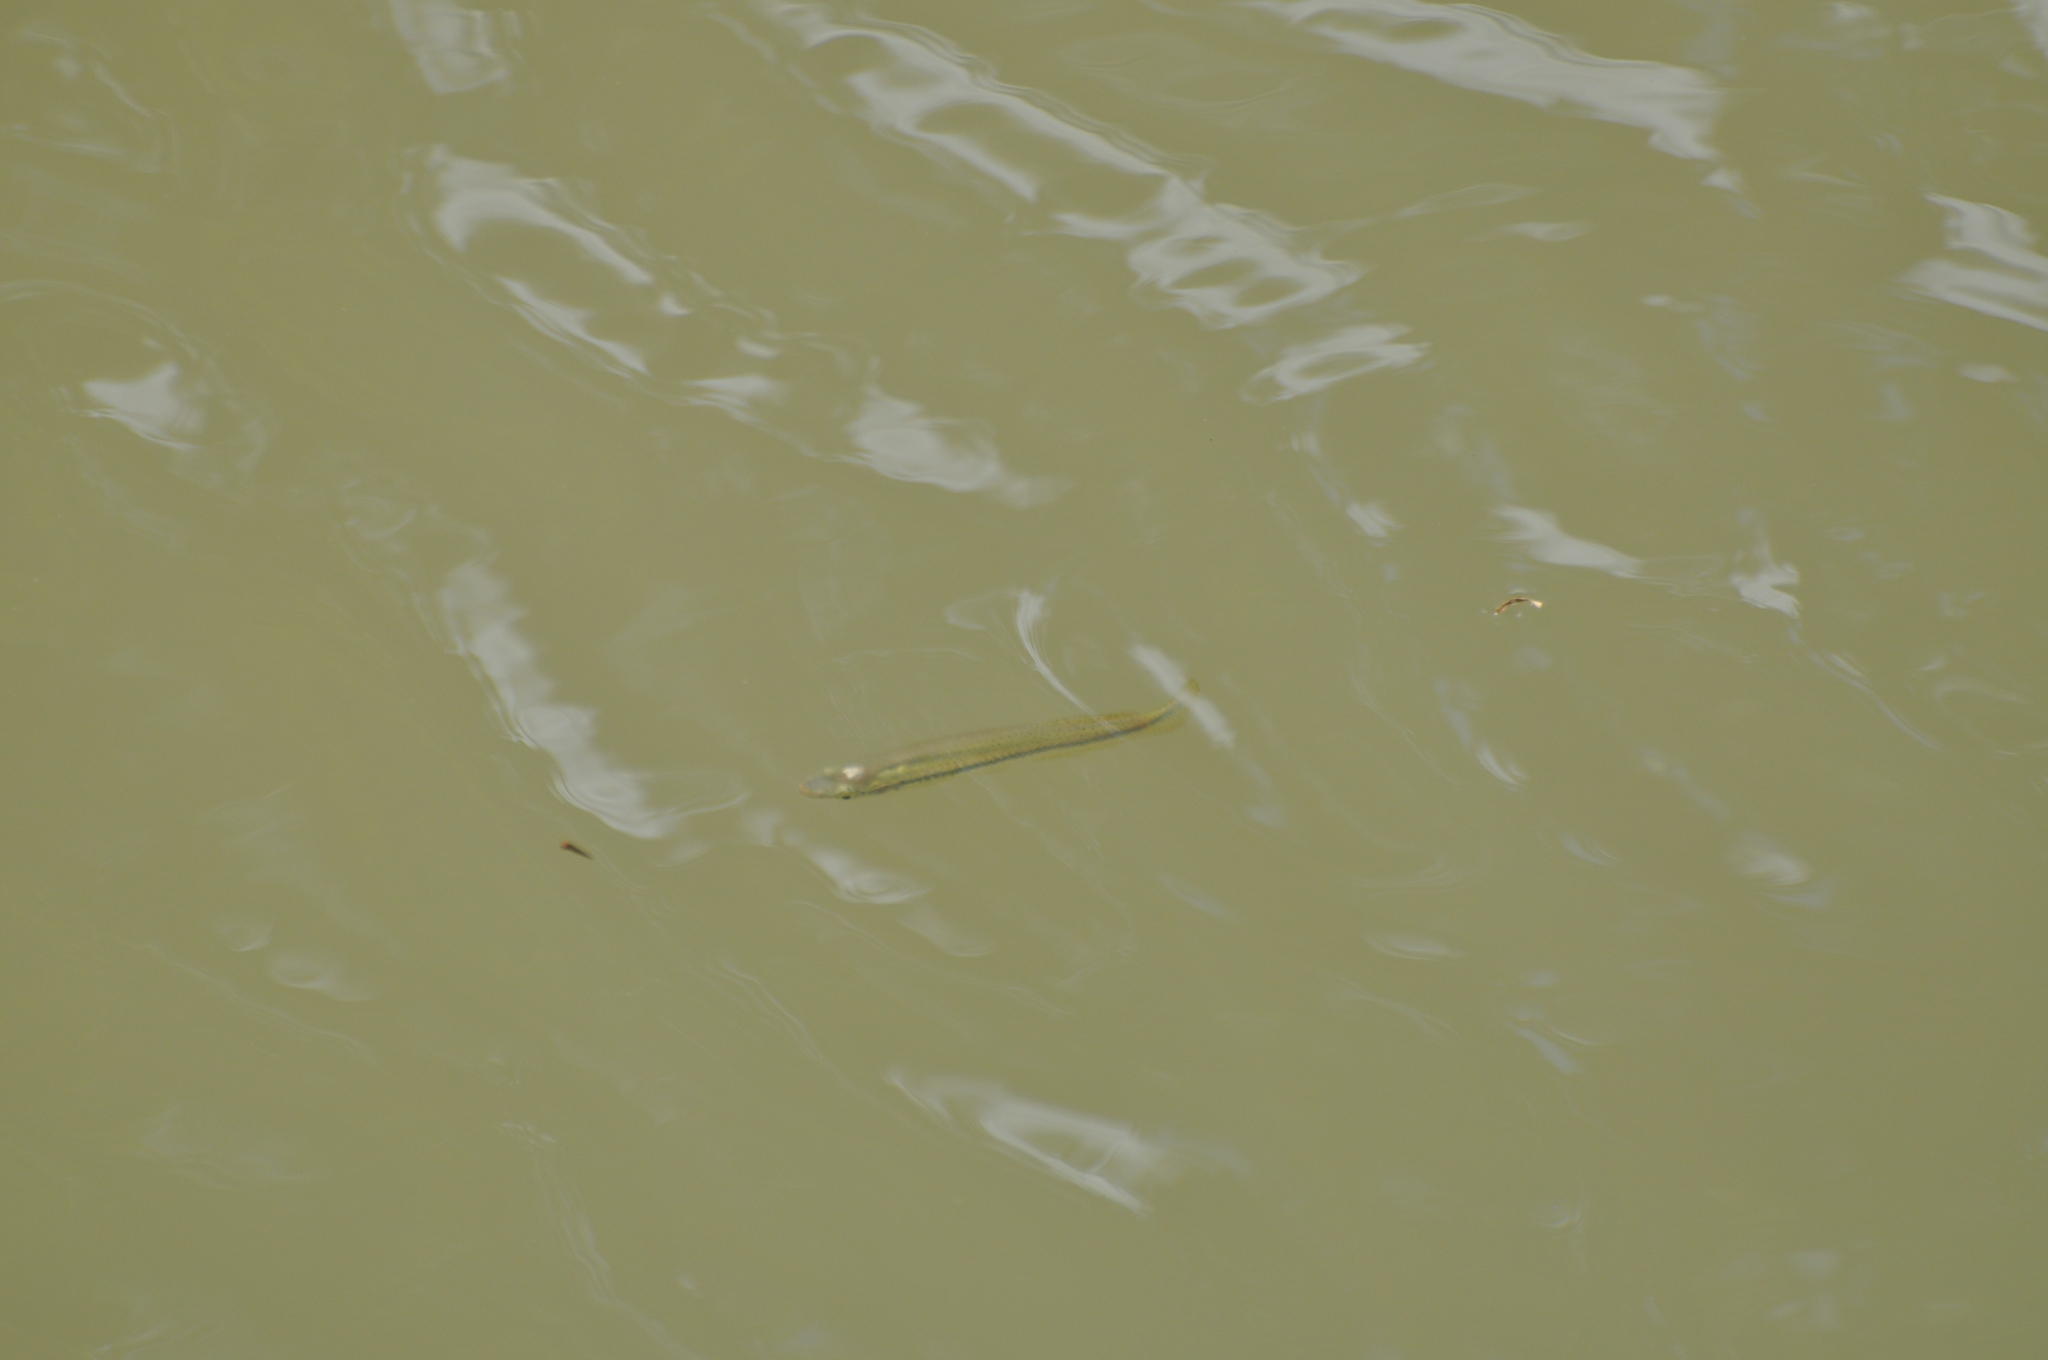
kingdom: Animalia
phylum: Chordata
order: Cyprinodontiformes
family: Fundulidae
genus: Fundulus
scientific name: Fundulus notatus
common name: Blackstripe topminnow
